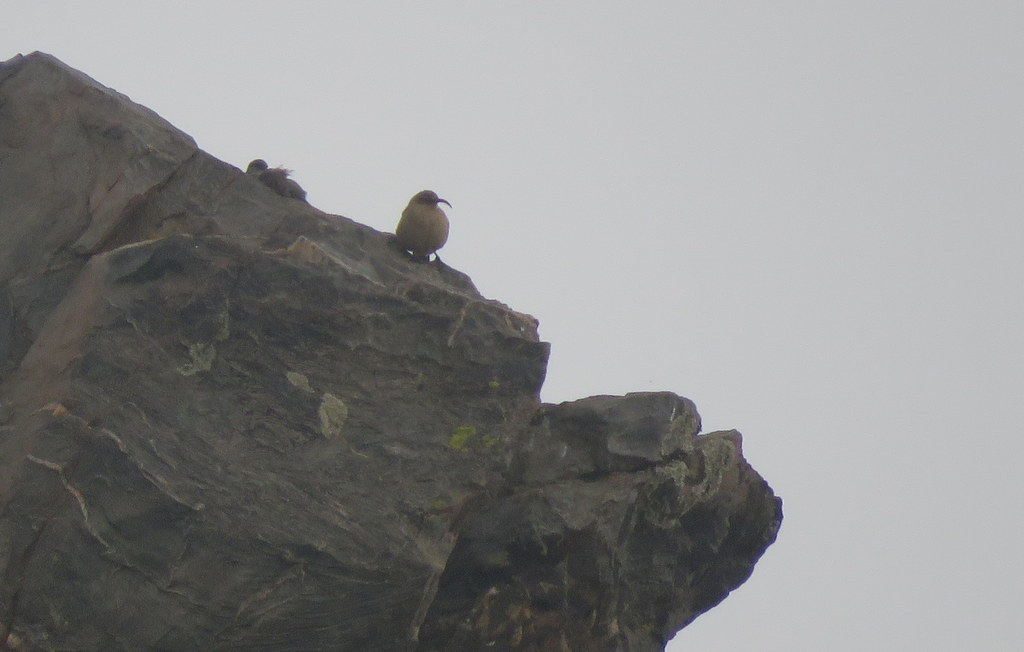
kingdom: Animalia
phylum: Chordata
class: Aves
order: Passeriformes
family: Furnariidae
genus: Upucerthia
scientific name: Upucerthia validirostris
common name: Buff-breasted earthcreeper
